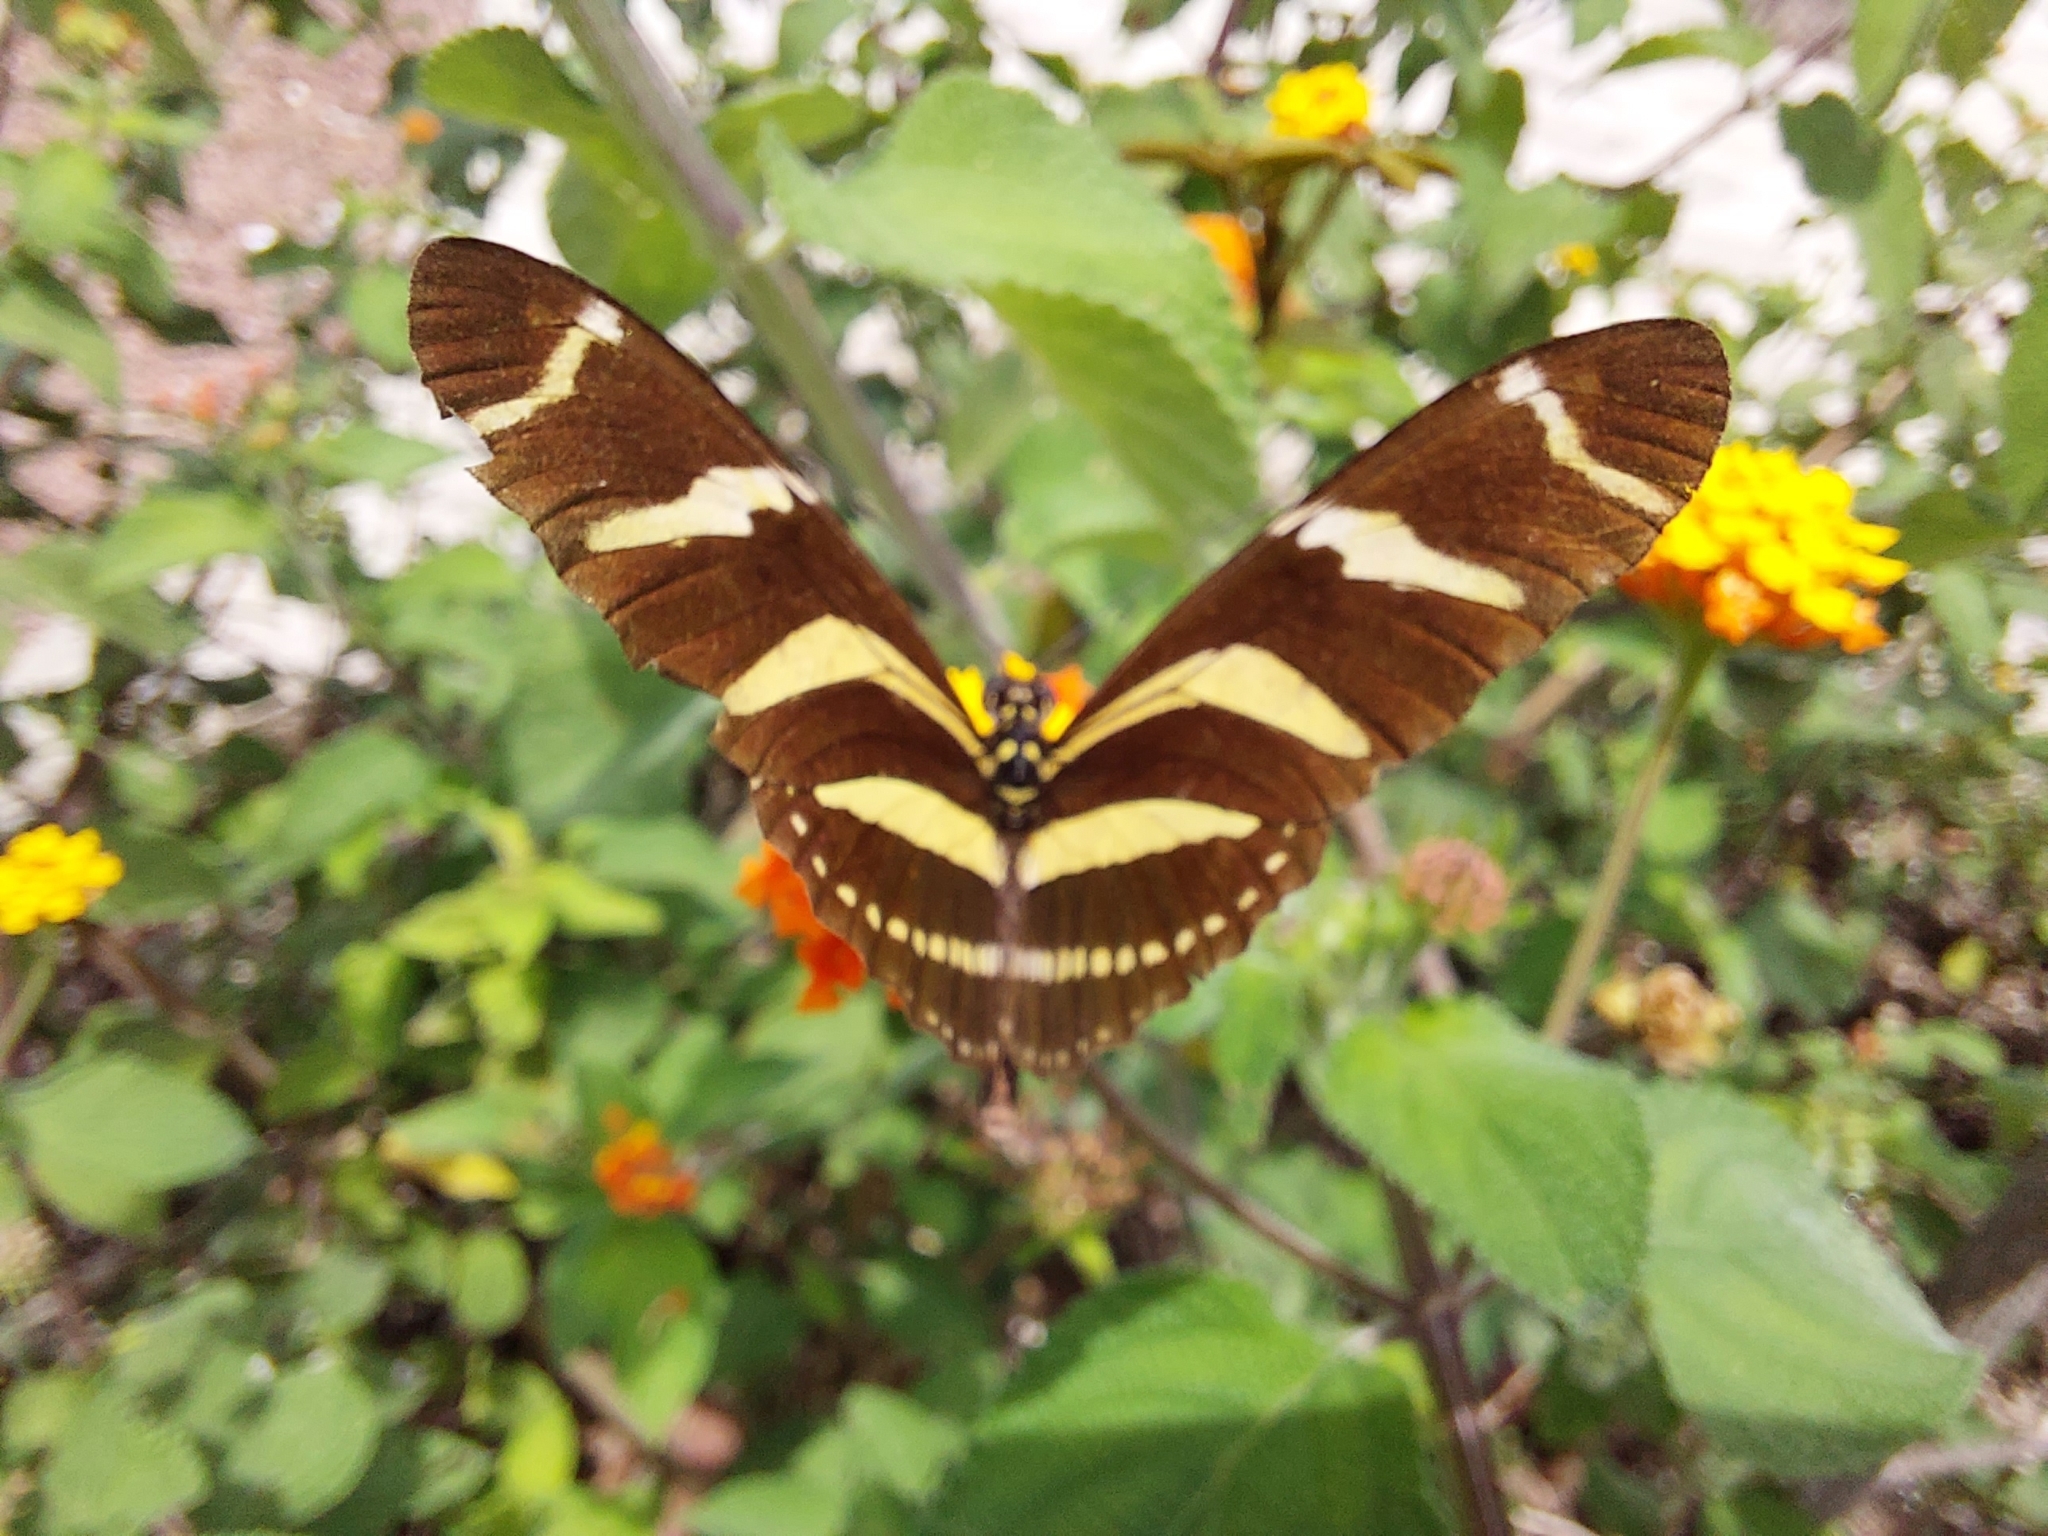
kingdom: Animalia
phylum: Arthropoda
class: Insecta
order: Lepidoptera
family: Nymphalidae
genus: Heliconius
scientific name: Heliconius charithonia
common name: Zebra long wing
